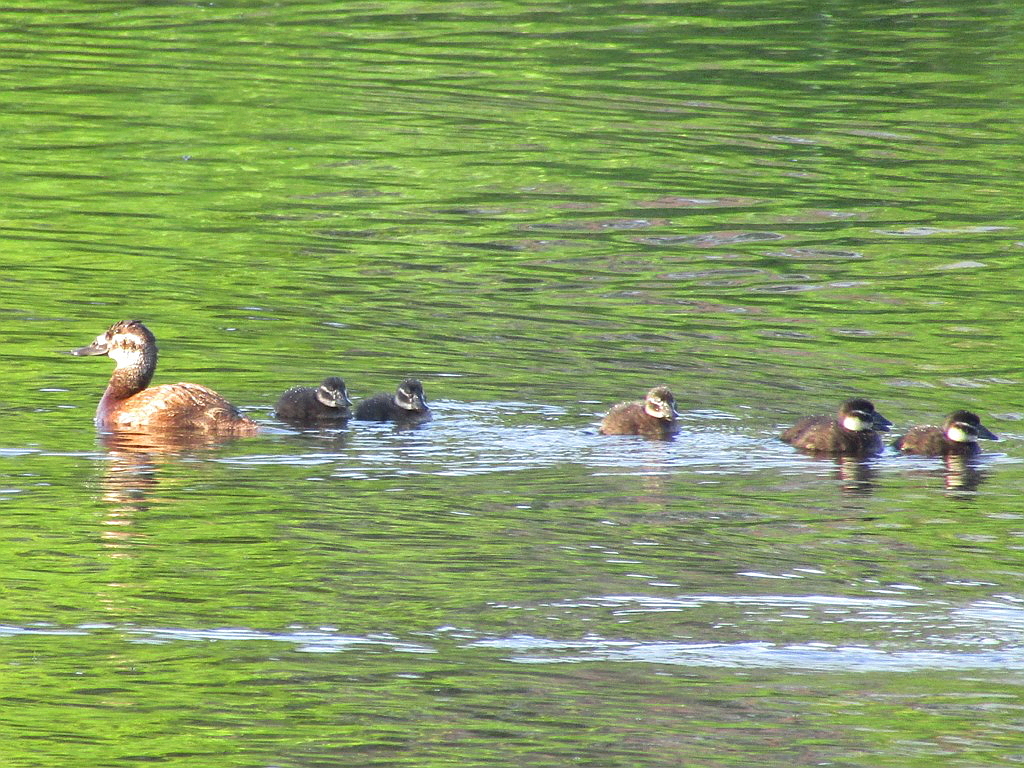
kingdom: Animalia
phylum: Chordata
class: Aves
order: Anseriformes
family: Anatidae
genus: Oxyura
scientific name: Oxyura leucocephala
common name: White-headed duck
